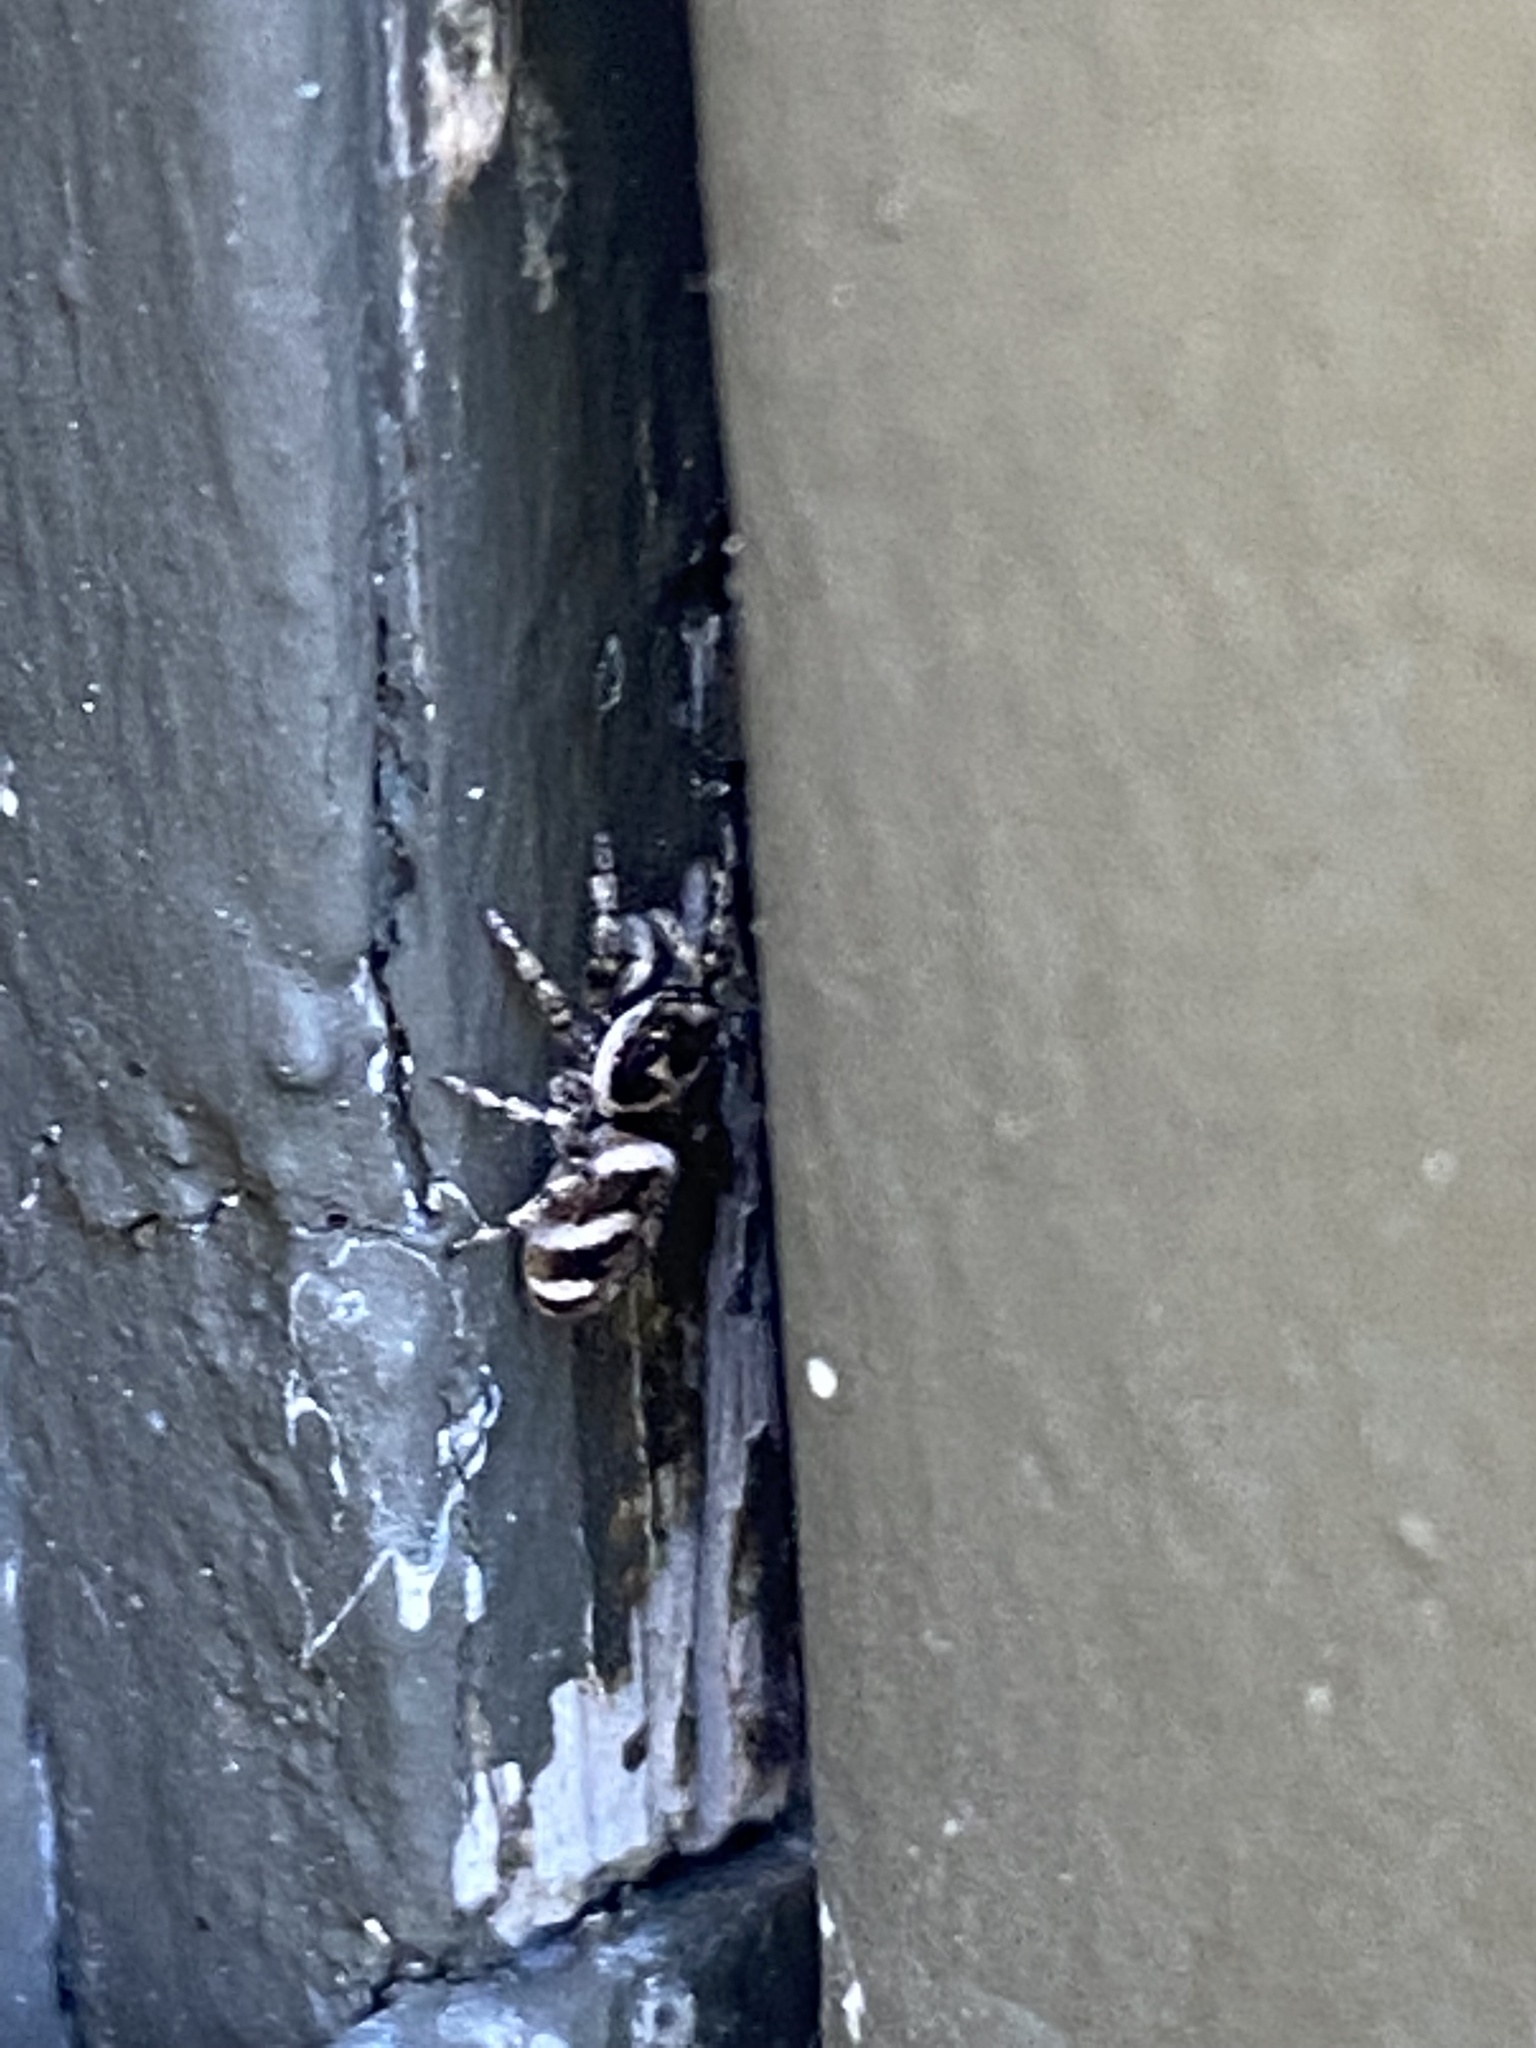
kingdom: Animalia
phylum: Arthropoda
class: Arachnida
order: Araneae
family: Salticidae
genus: Salticus
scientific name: Salticus scenicus
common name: Zebra jumper
